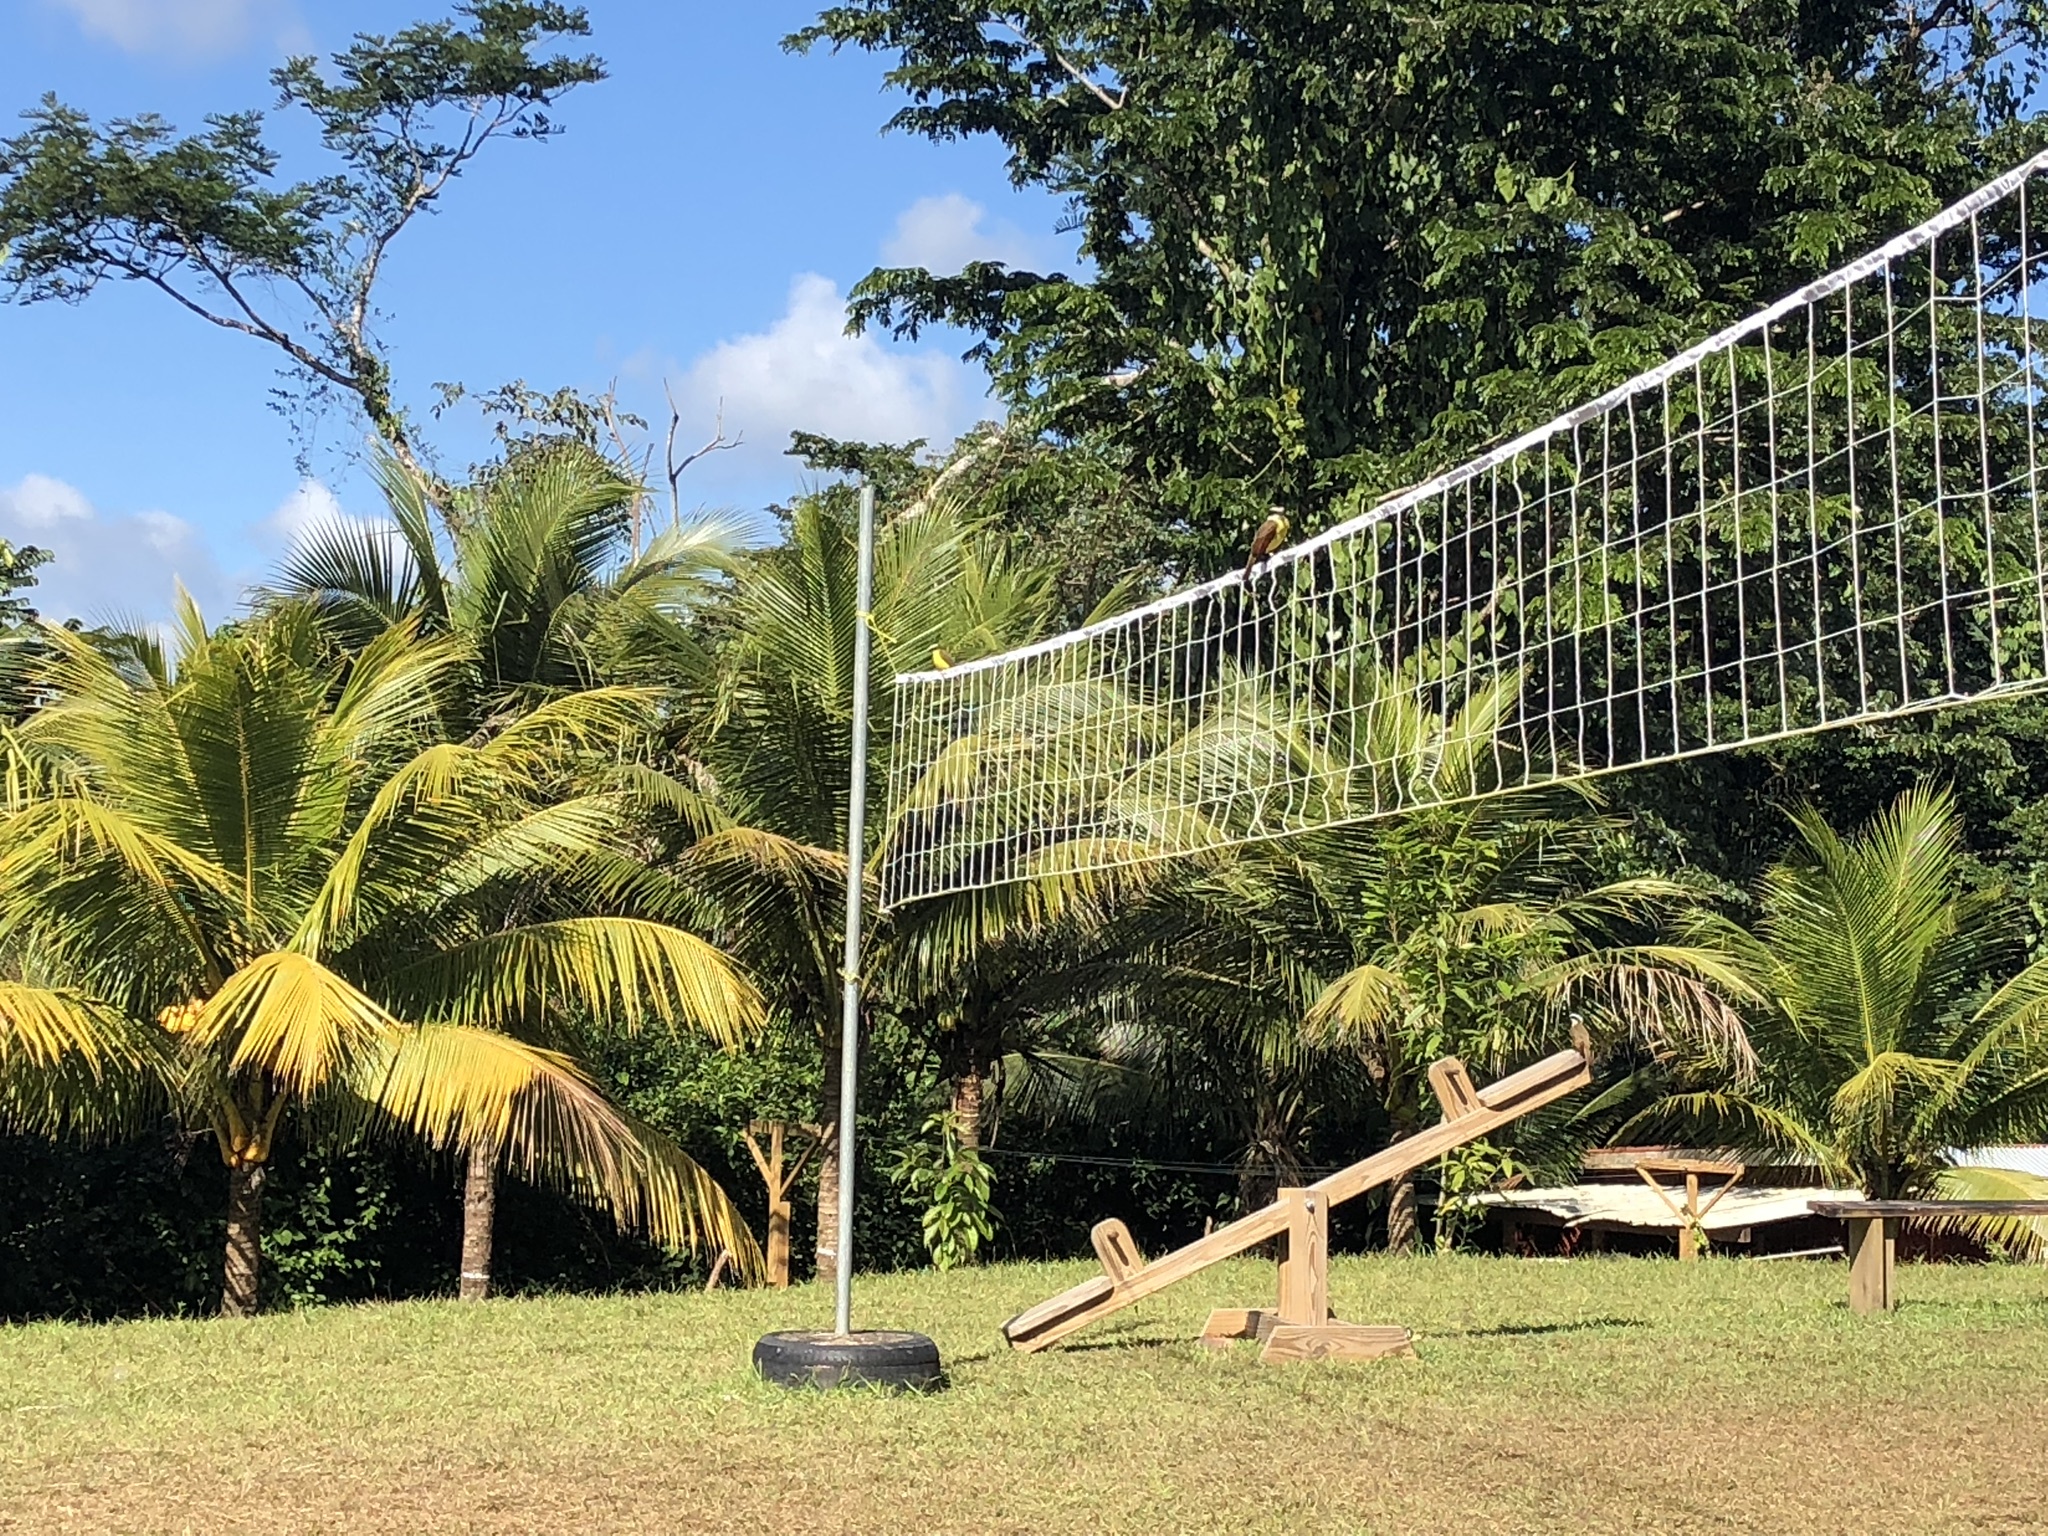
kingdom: Animalia
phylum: Chordata
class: Aves
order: Passeriformes
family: Tyrannidae
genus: Pitangus
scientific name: Pitangus sulphuratus
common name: Great kiskadee
